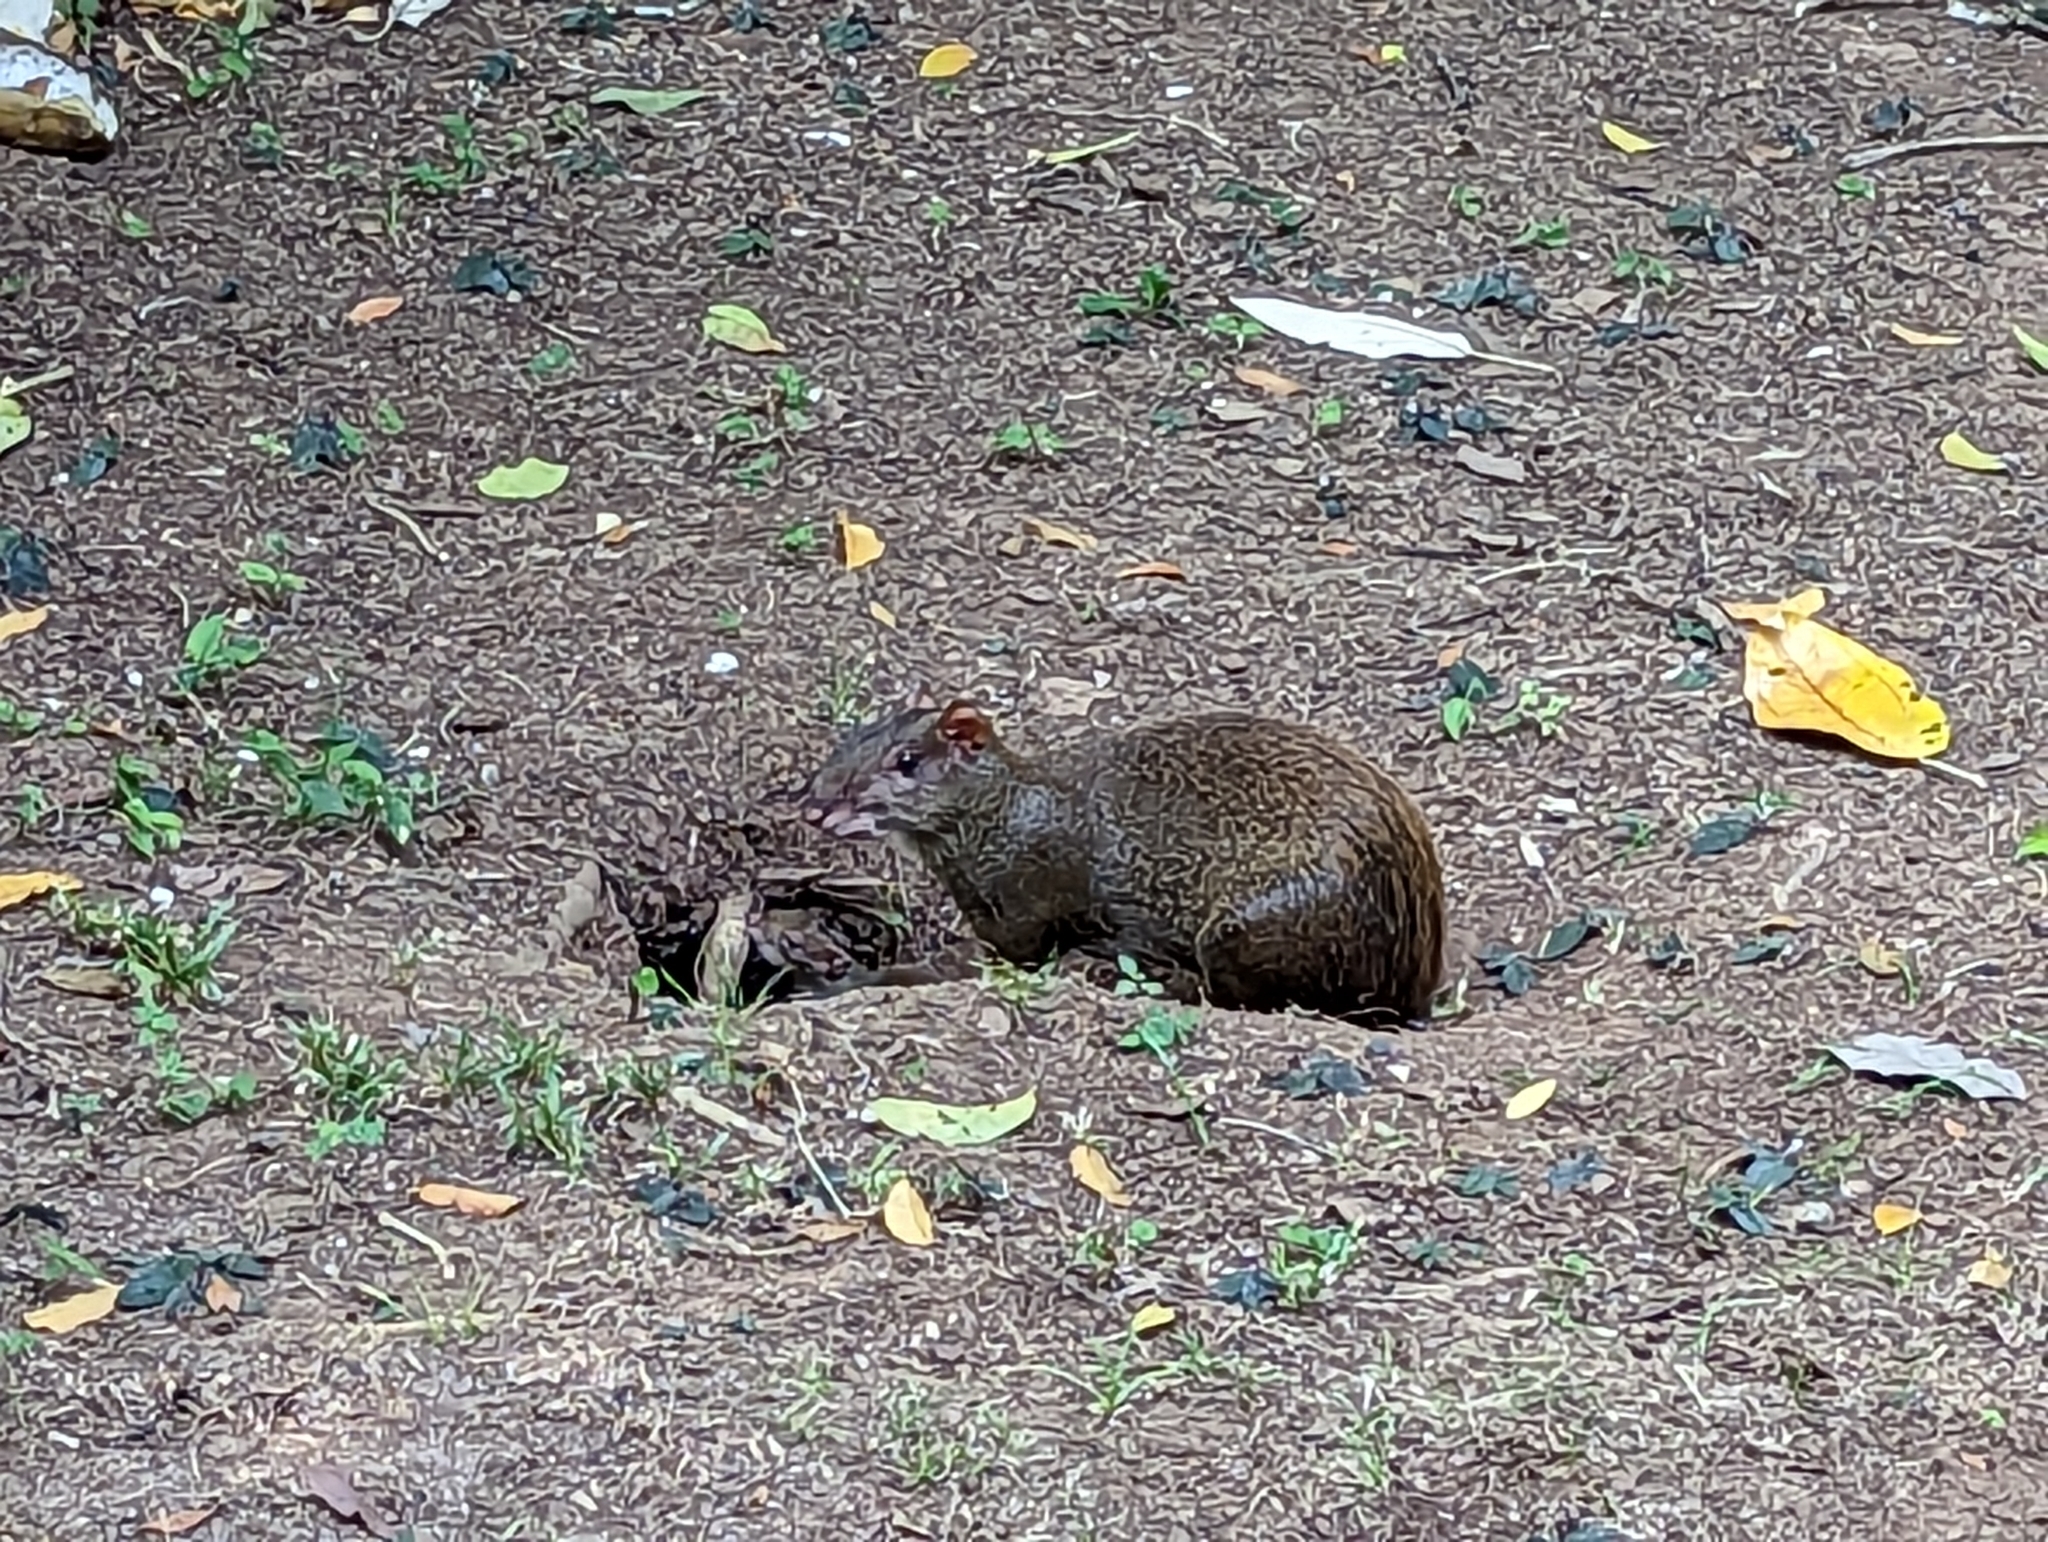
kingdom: Animalia
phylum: Chordata
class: Mammalia
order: Rodentia
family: Dasyproctidae
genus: Dasyprocta
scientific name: Dasyprocta punctata
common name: Central american agouti
